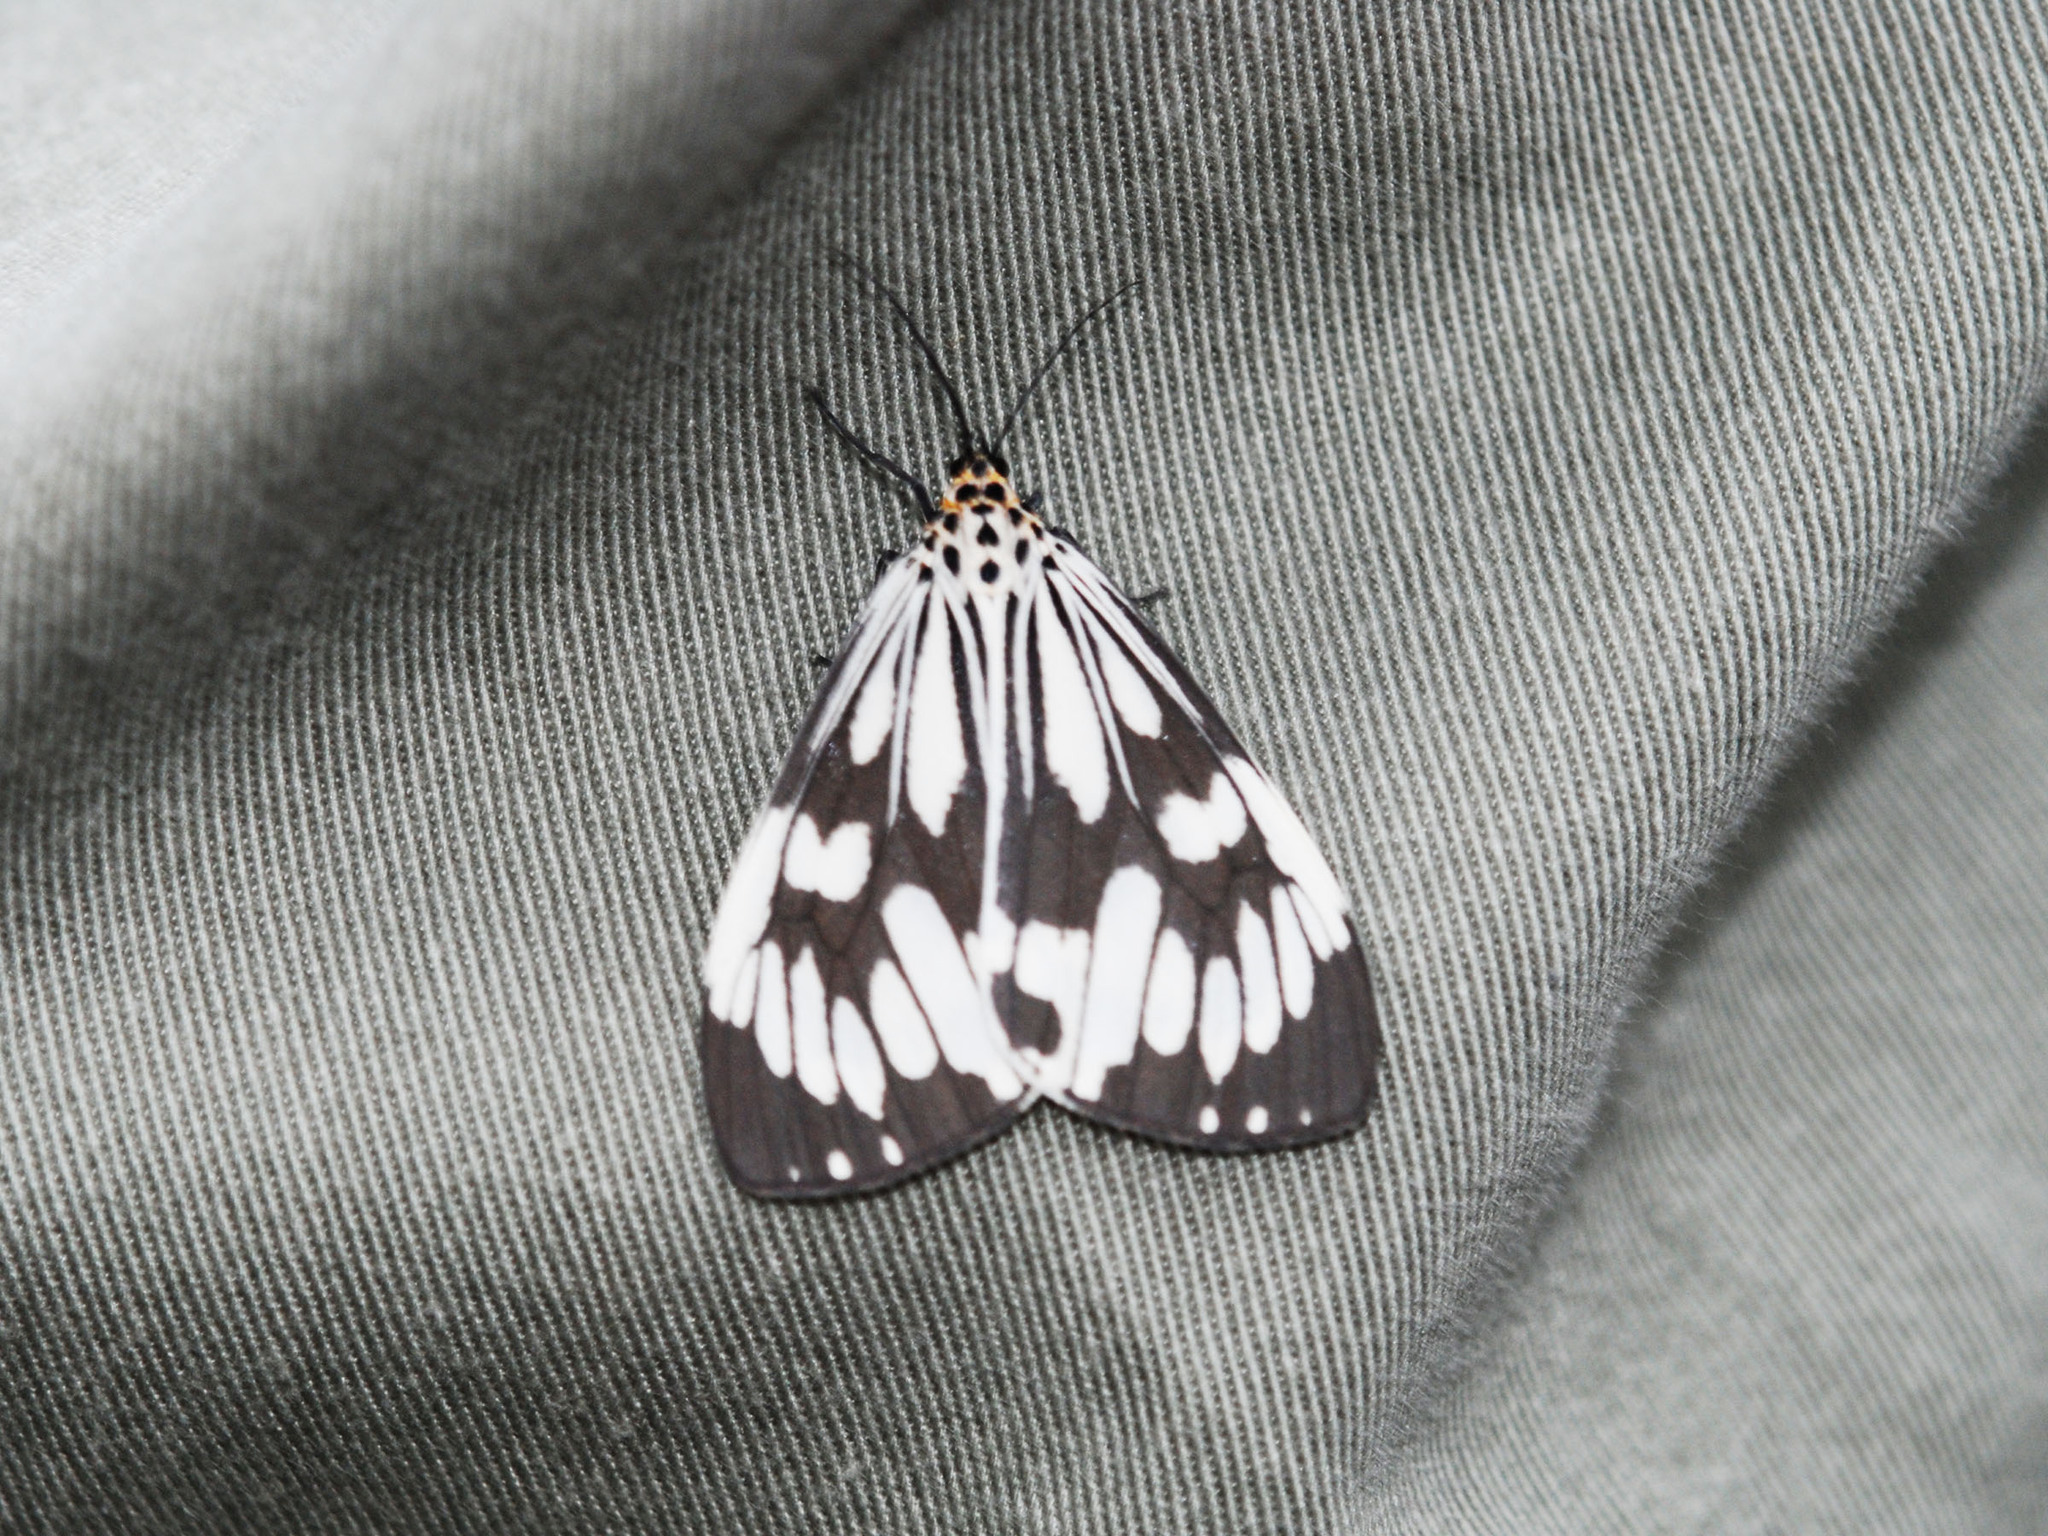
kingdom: Animalia
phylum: Arthropoda
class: Insecta
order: Lepidoptera
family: Erebidae
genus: Nyctemera
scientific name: Nyctemera adversata
